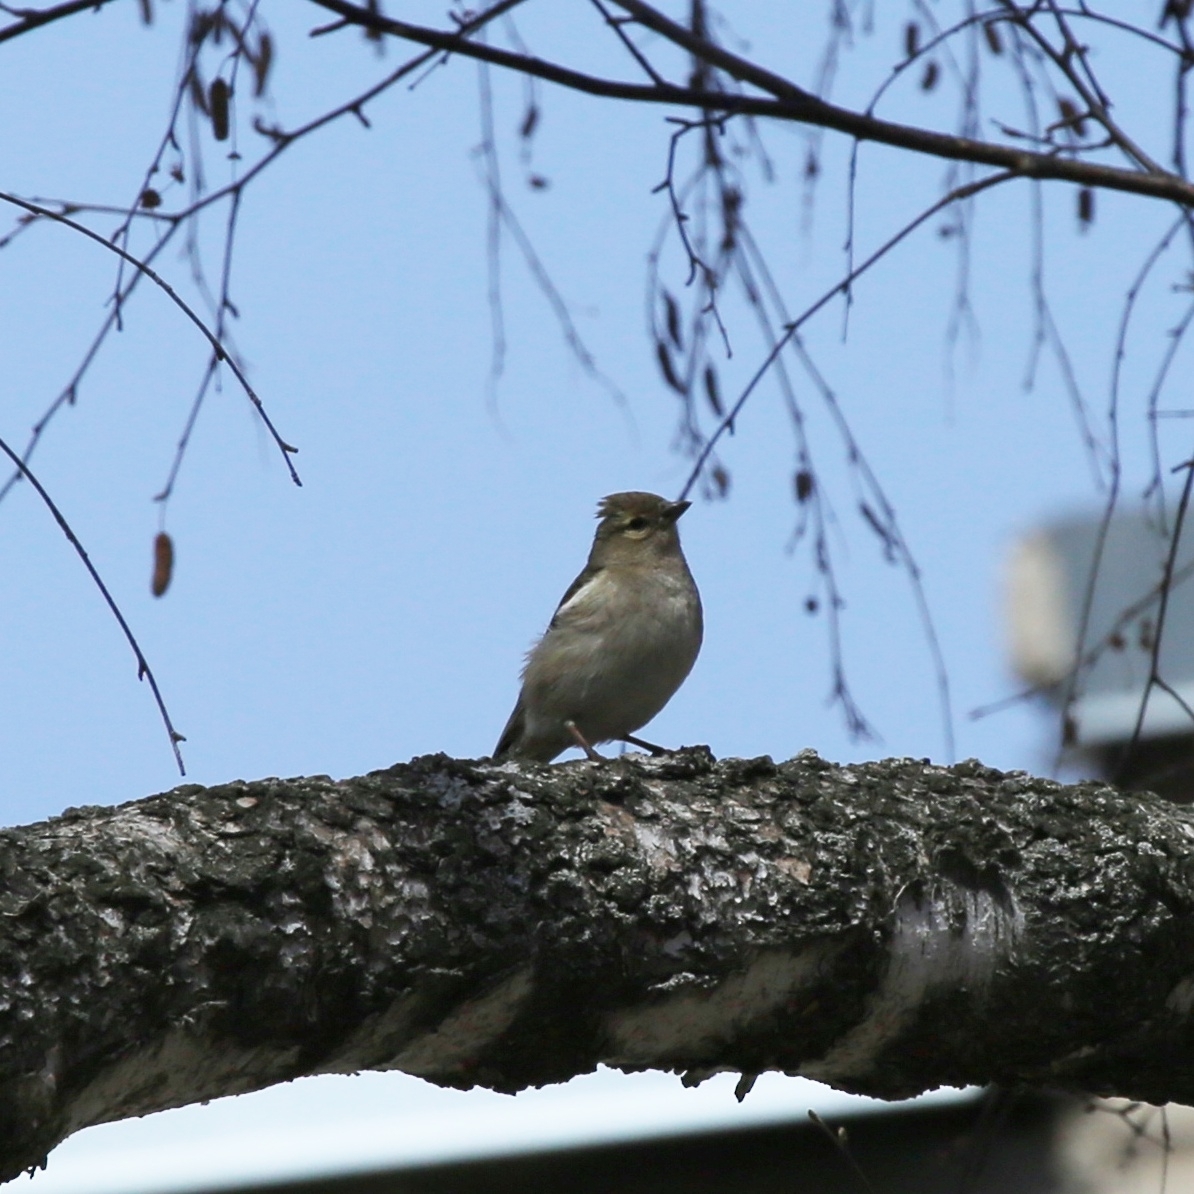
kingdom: Animalia
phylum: Chordata
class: Aves
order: Passeriformes
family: Fringillidae
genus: Fringilla
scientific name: Fringilla coelebs
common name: Common chaffinch
